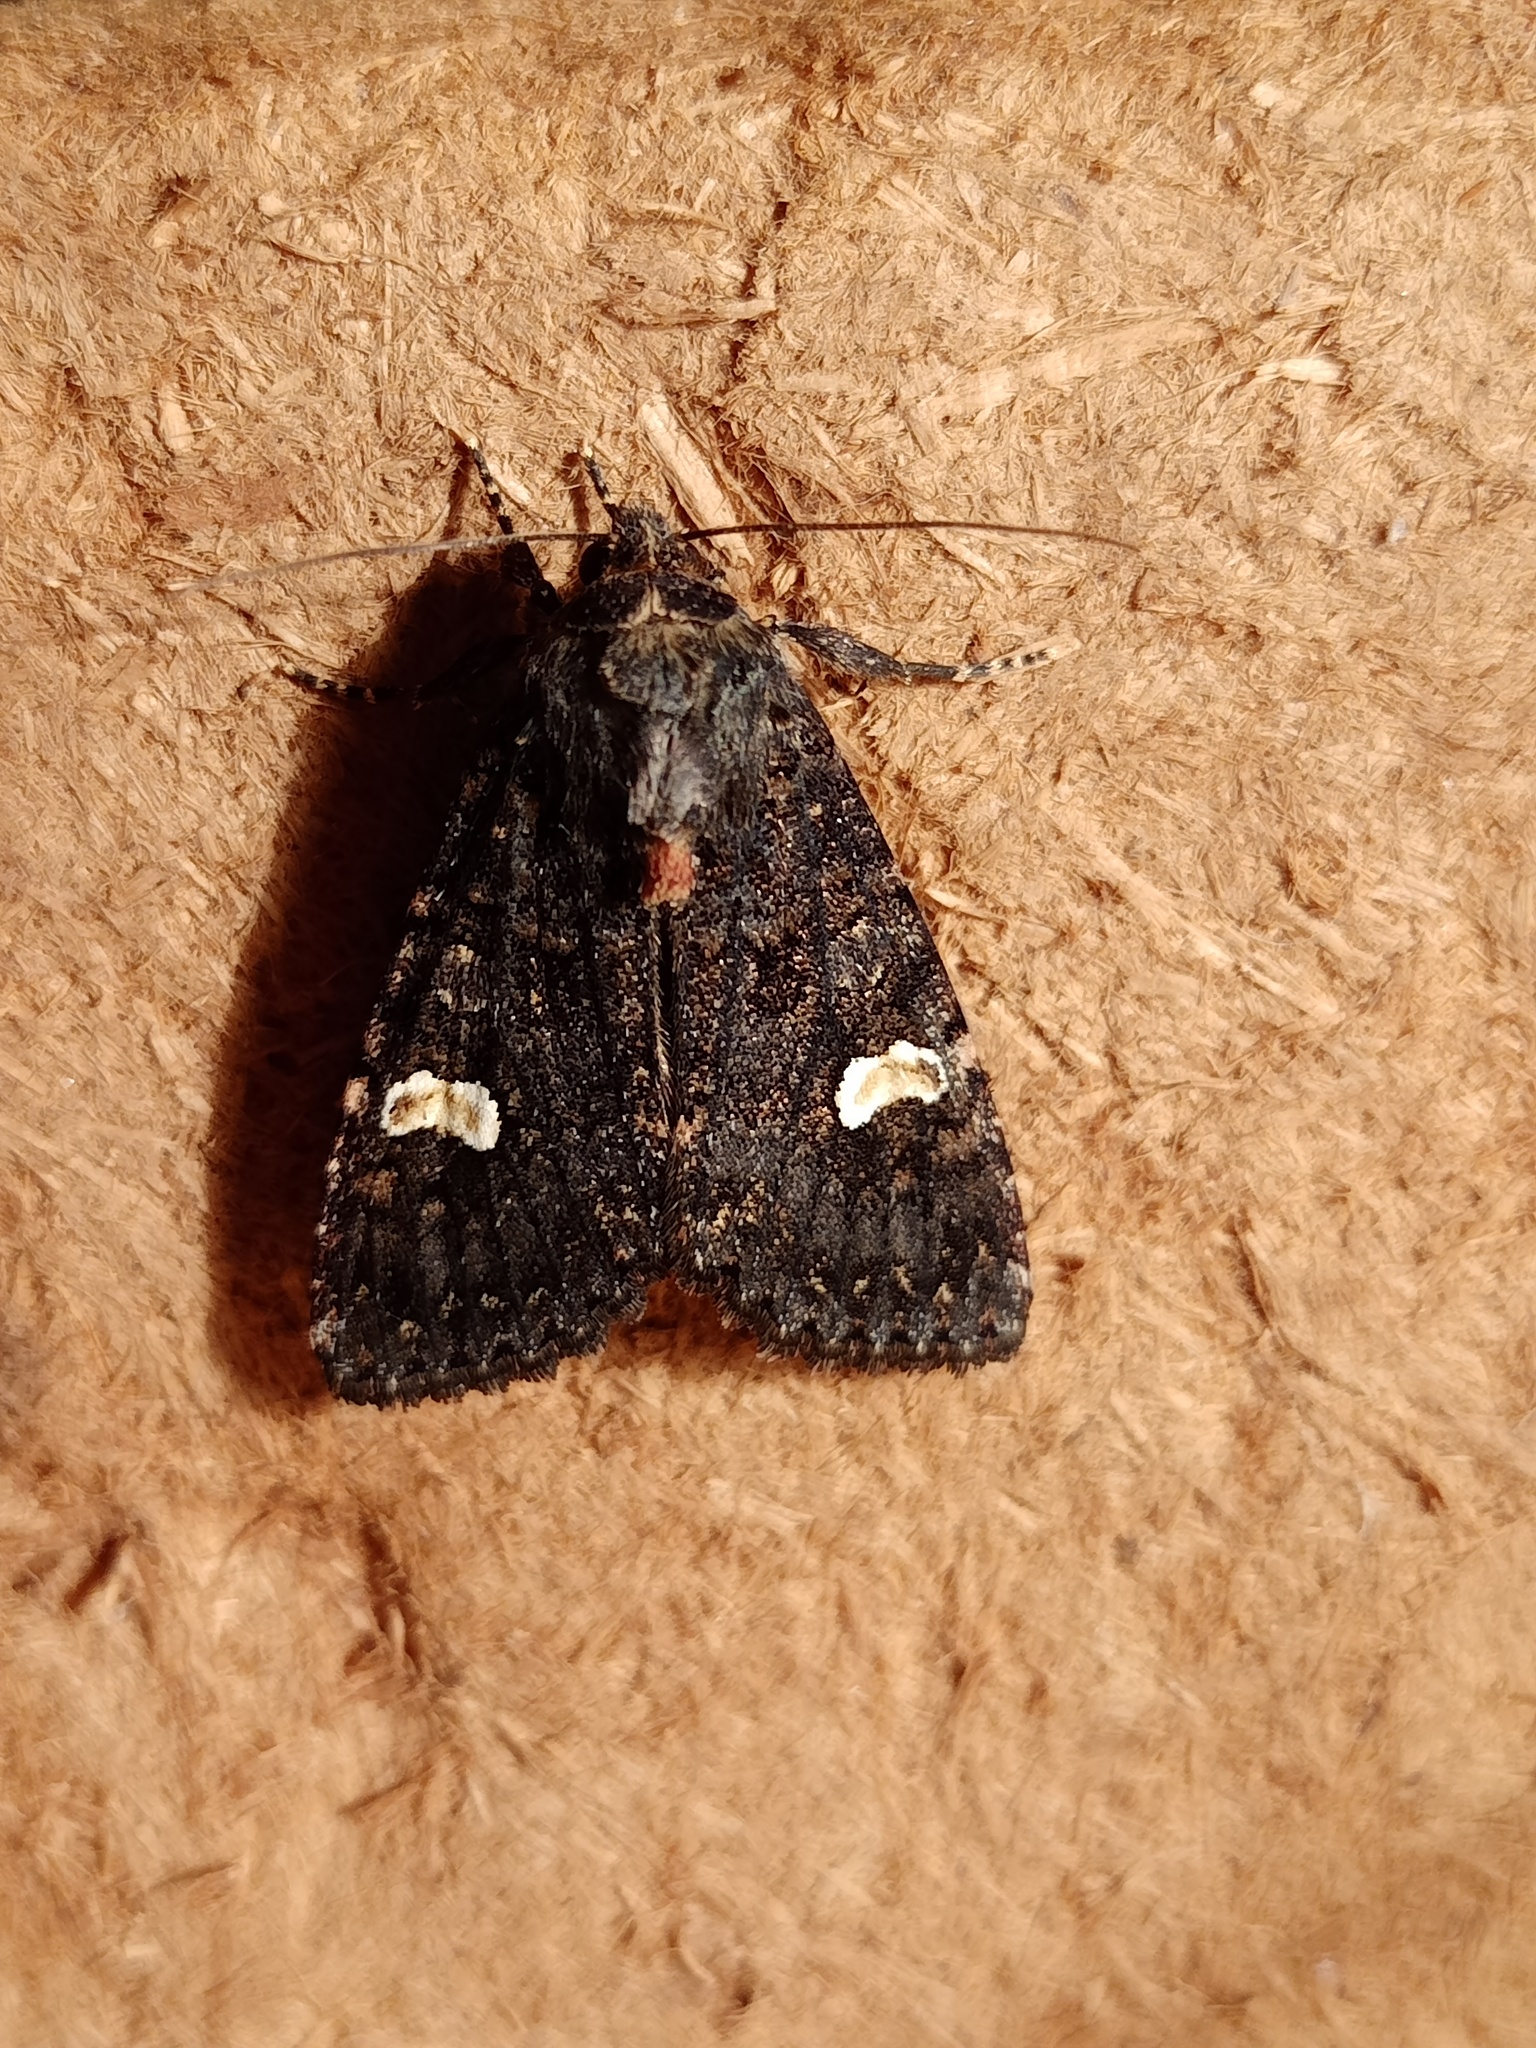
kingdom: Animalia
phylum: Arthropoda
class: Insecta
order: Lepidoptera
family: Noctuidae
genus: Melanchra
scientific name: Melanchra persicariae
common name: Dot moth
